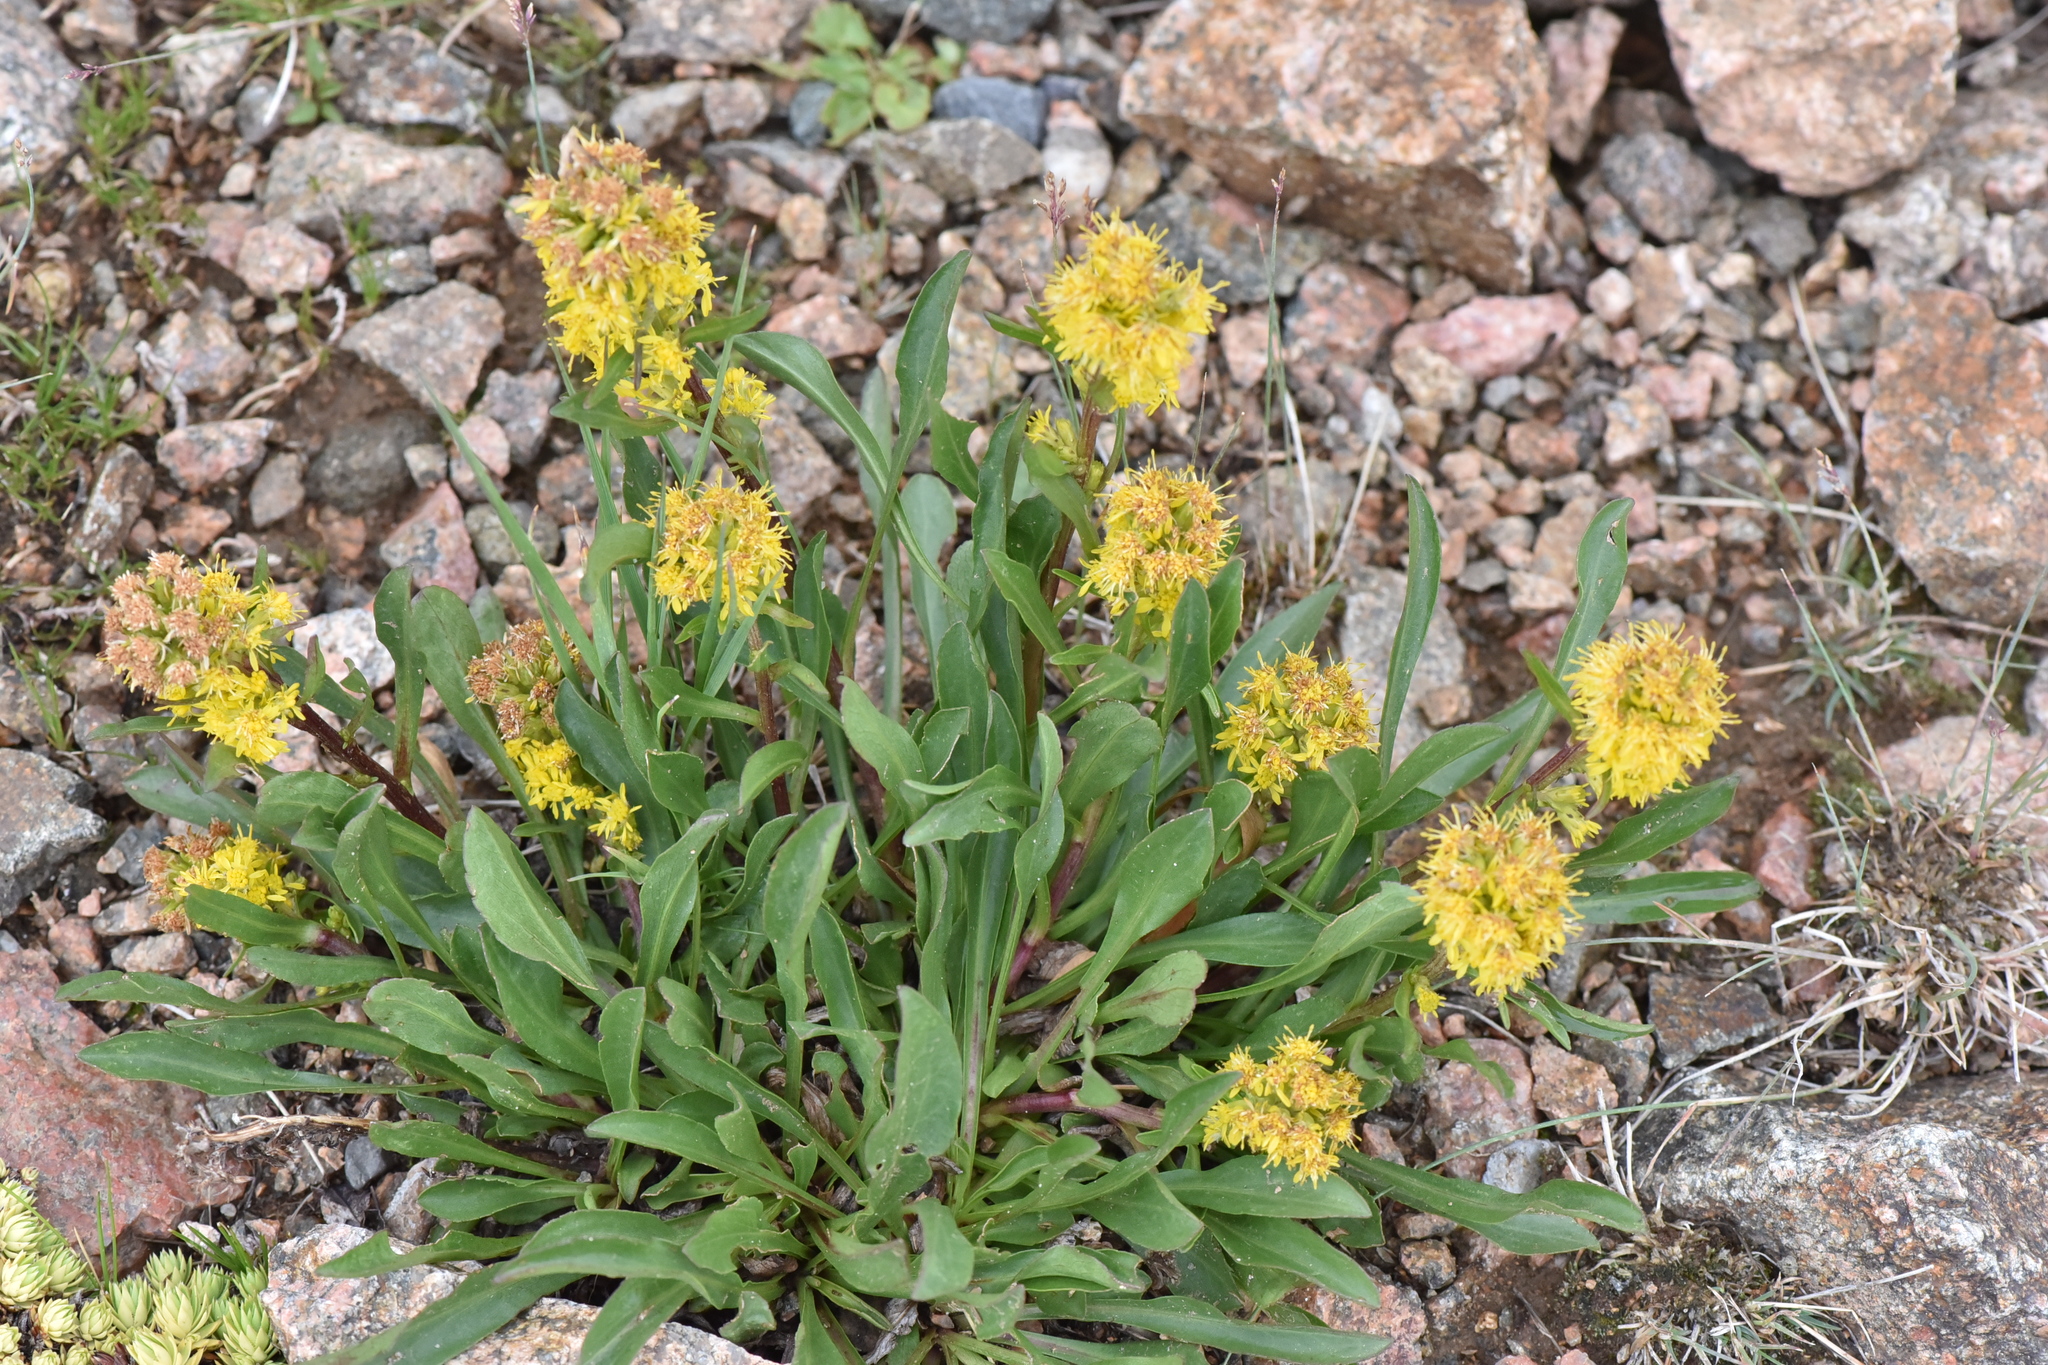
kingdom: Plantae
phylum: Tracheophyta
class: Magnoliopsida
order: Asterales
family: Asteraceae
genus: Solidago
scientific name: Solidago simplex
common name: Sticky goldenrod
